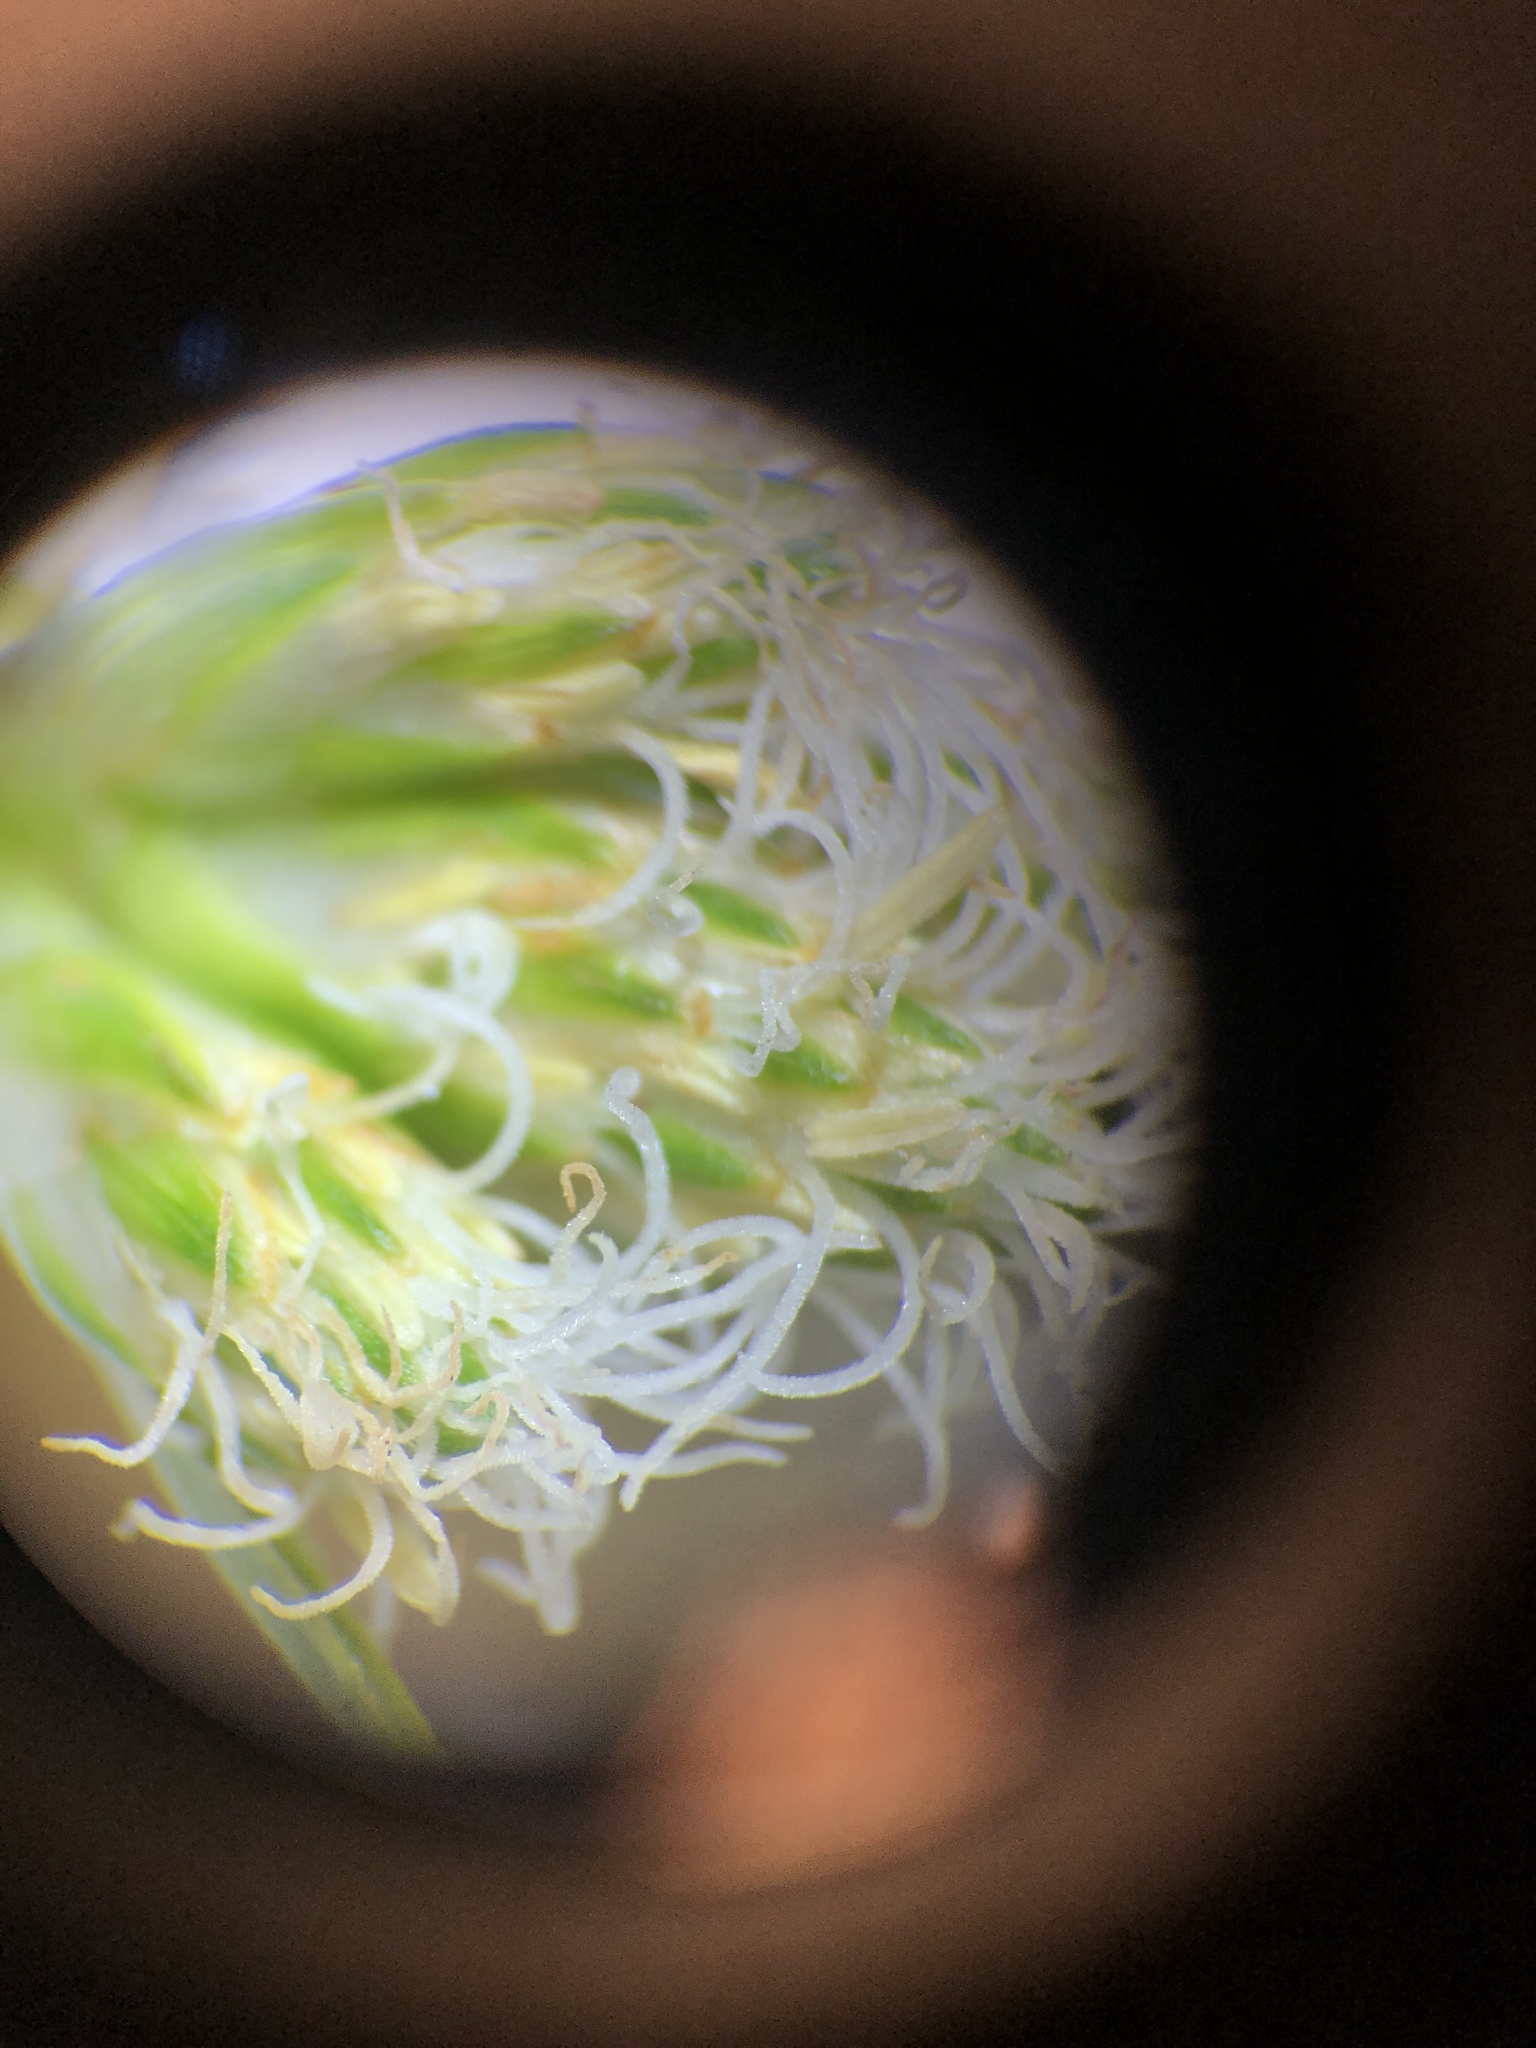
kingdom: Plantae
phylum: Tracheophyta
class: Liliopsida
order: Poales
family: Cyperaceae
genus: Eriophorum
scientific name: Eriophorum virginicum
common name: Tawny cottongrass
